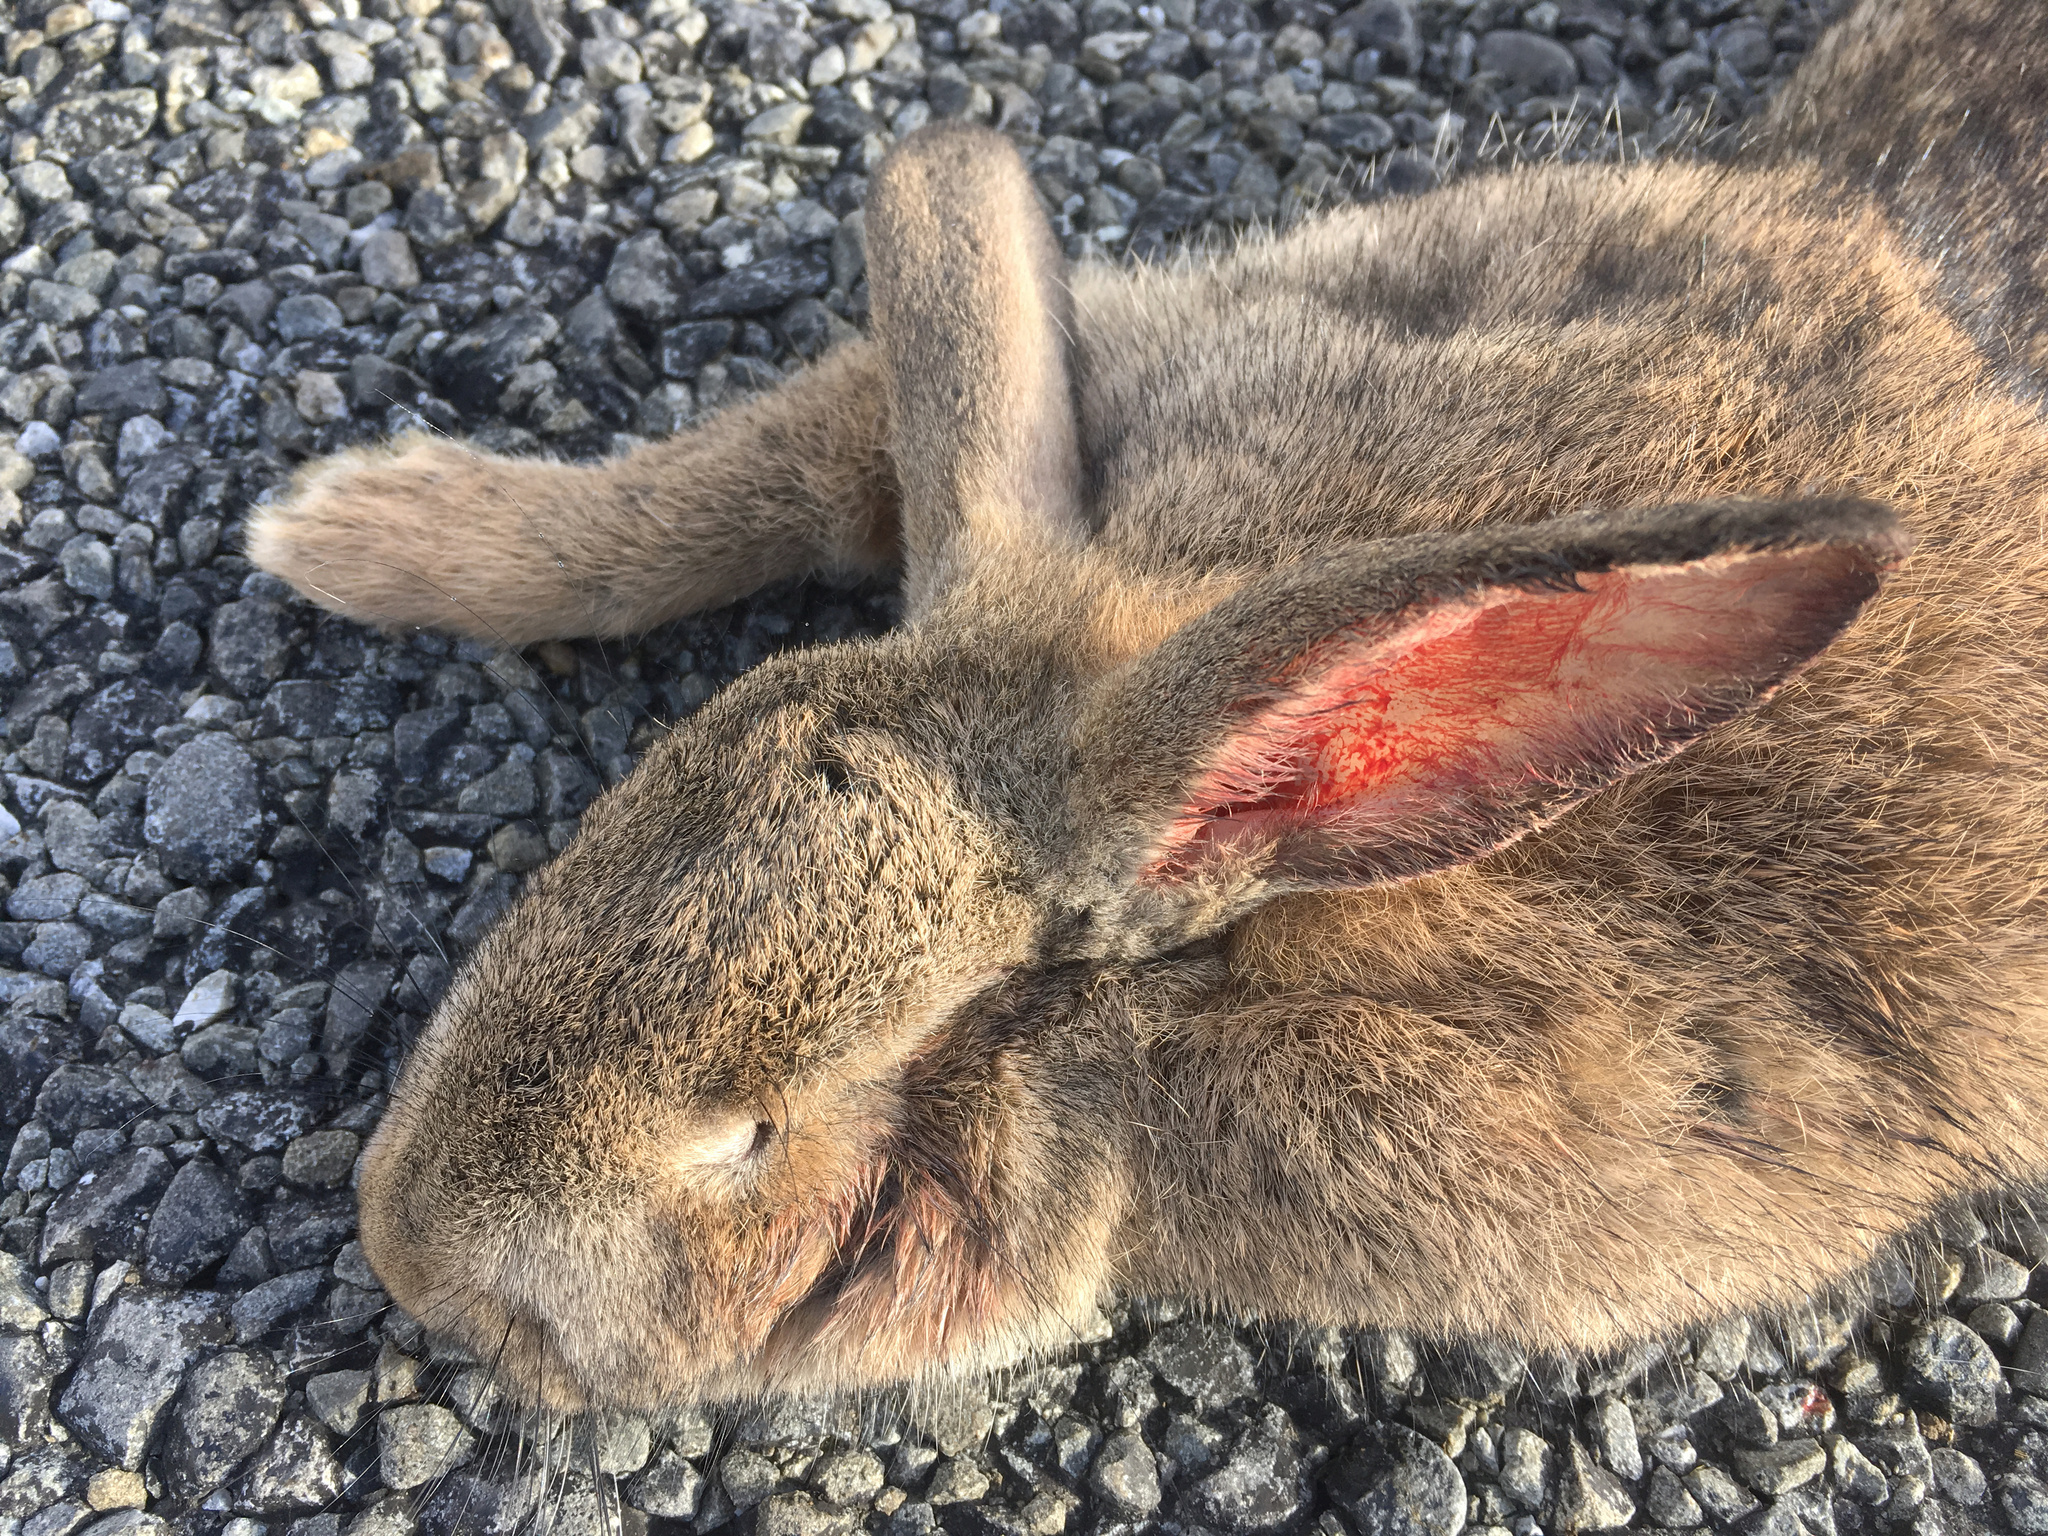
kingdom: Animalia
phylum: Chordata
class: Mammalia
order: Lagomorpha
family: Leporidae
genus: Oryctolagus
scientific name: Oryctolagus cuniculus
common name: European rabbit
